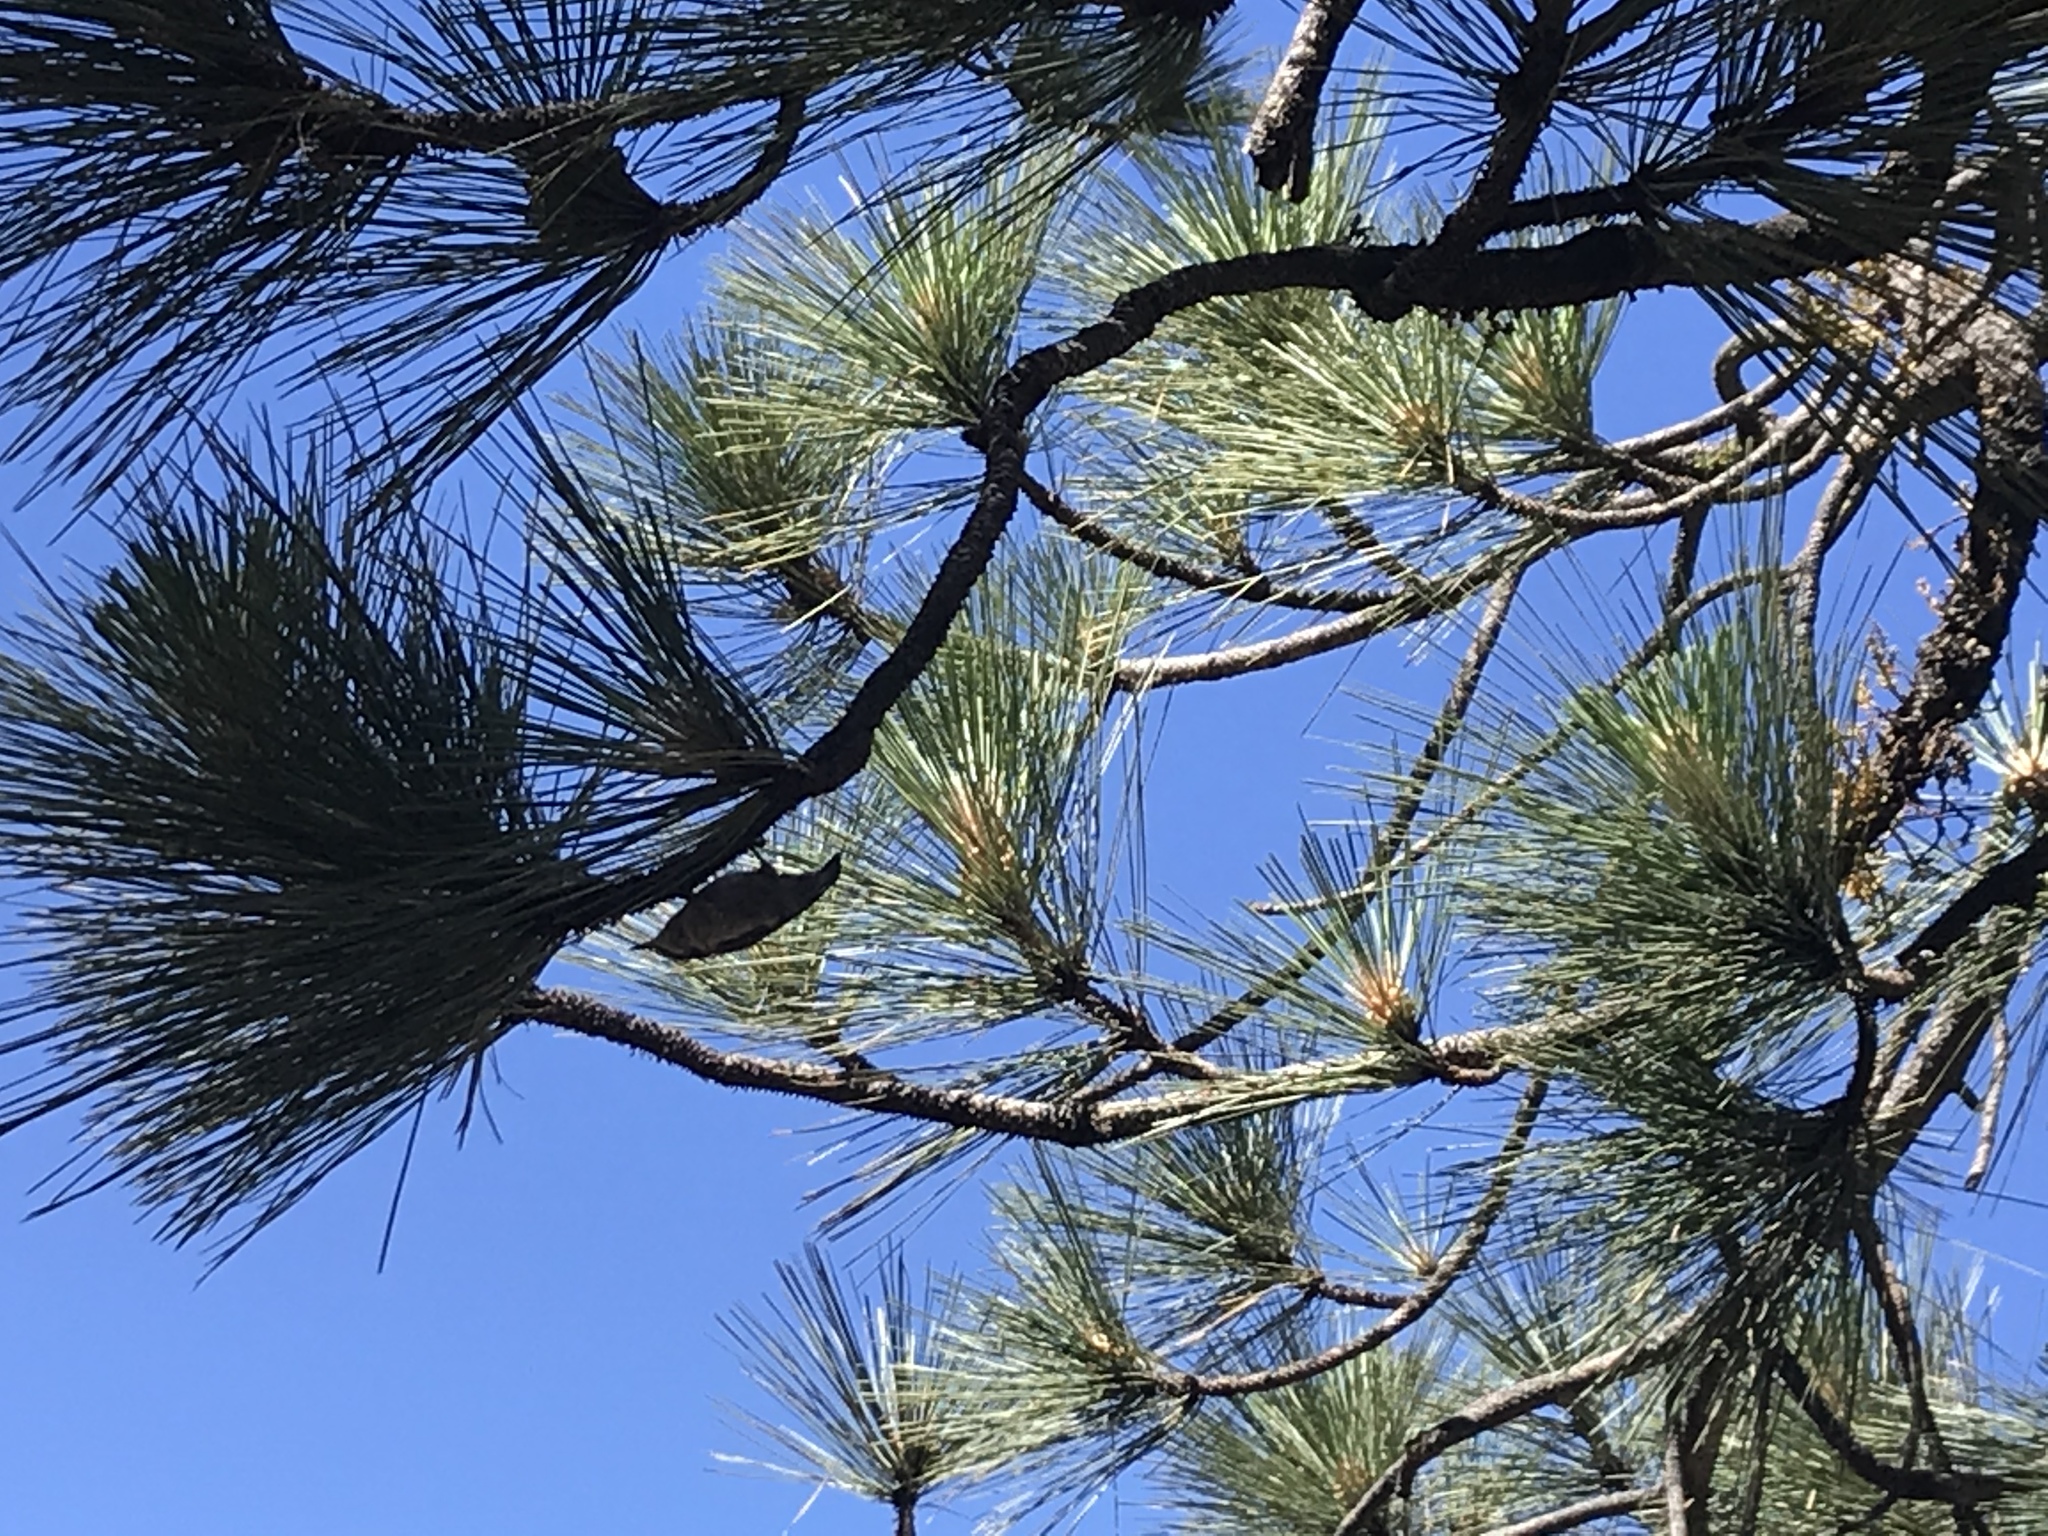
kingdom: Animalia
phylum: Chordata
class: Aves
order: Passeriformes
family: Sittidae
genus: Sitta
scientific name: Sitta pygmaea
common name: Pygmy nuthatch
